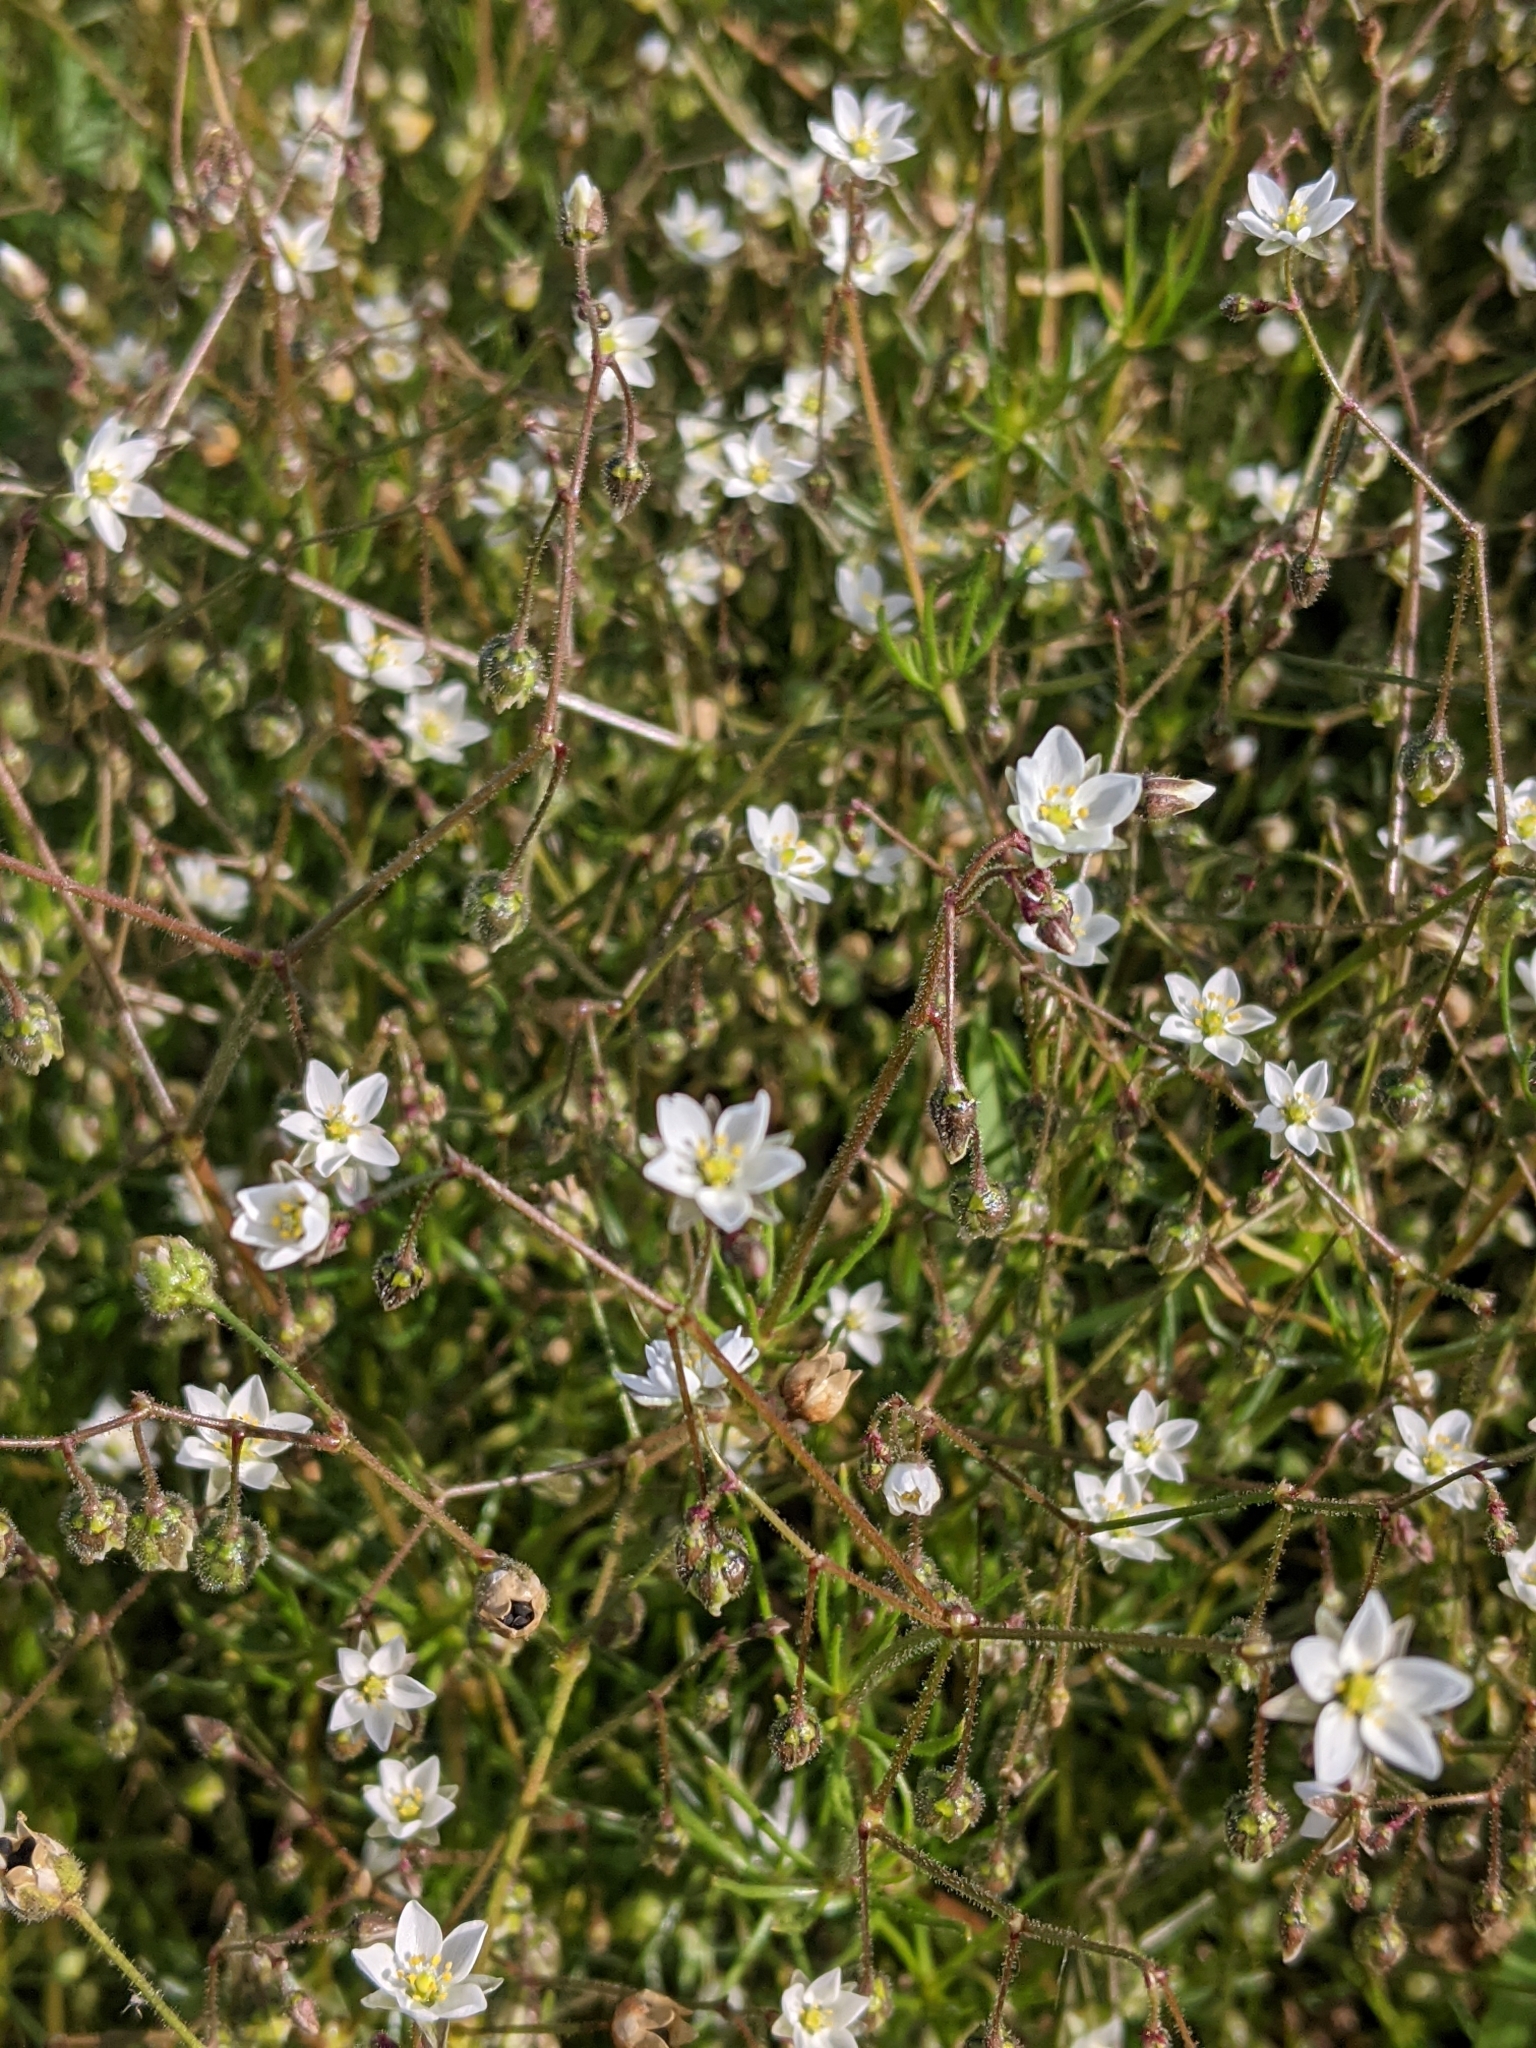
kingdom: Plantae
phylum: Tracheophyta
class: Magnoliopsida
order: Caryophyllales
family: Caryophyllaceae
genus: Spergula
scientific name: Spergula arvensis
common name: Corn spurrey
